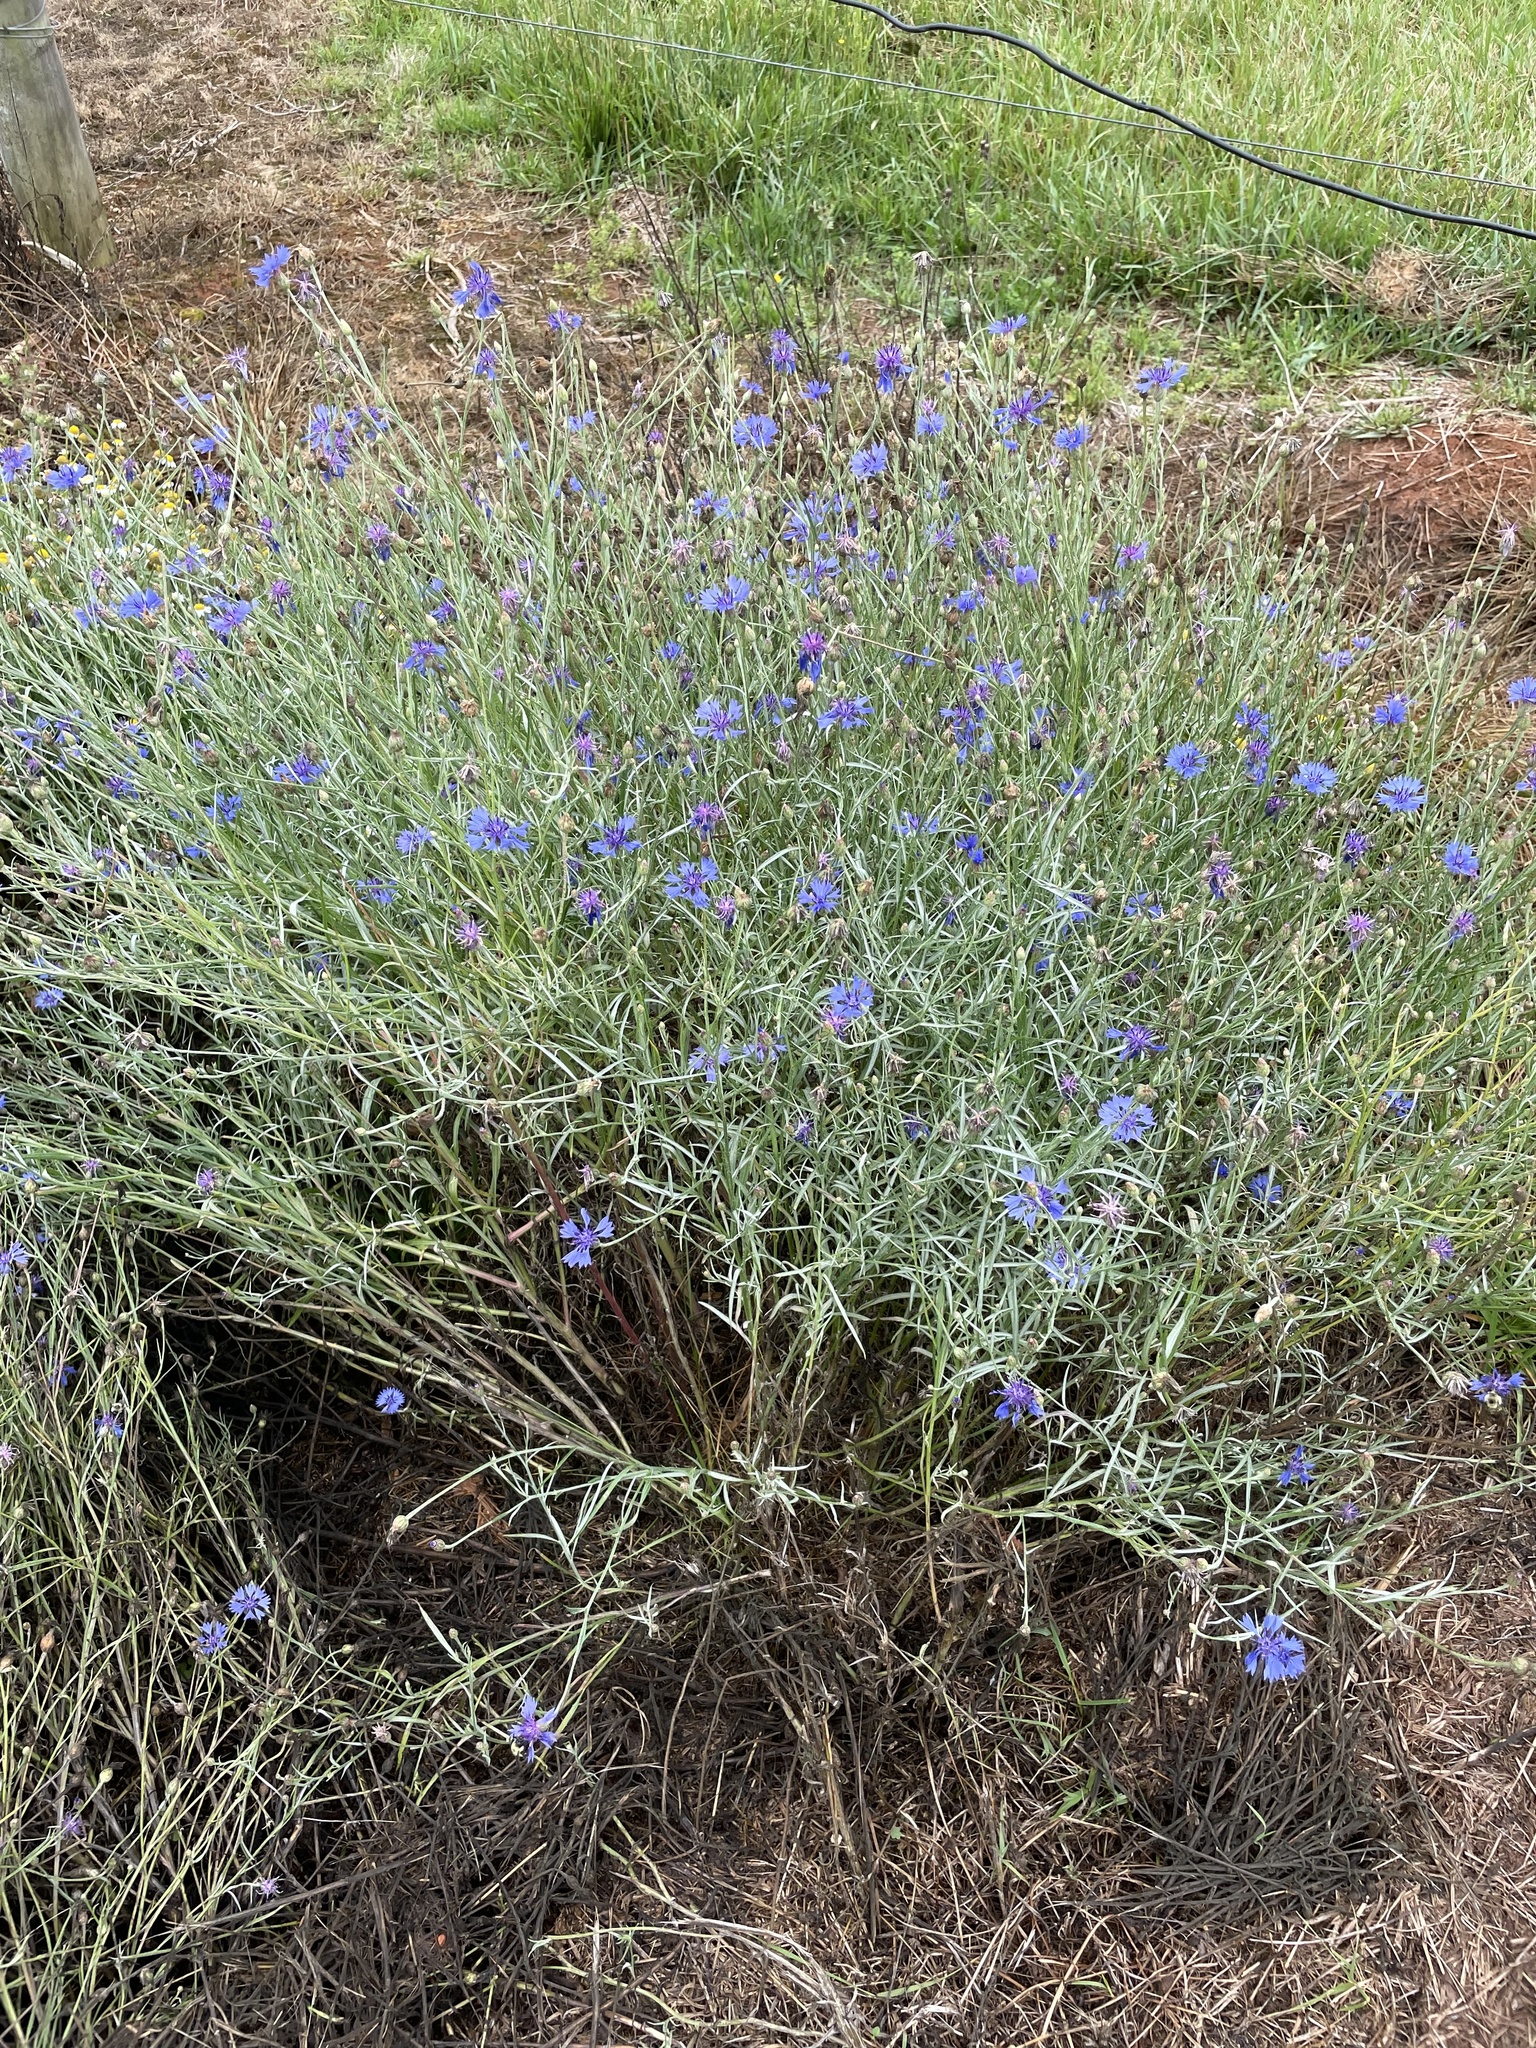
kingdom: Plantae
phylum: Tracheophyta
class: Magnoliopsida
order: Asterales
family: Asteraceae
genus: Centaurea
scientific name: Centaurea cyanus
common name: Cornflower
